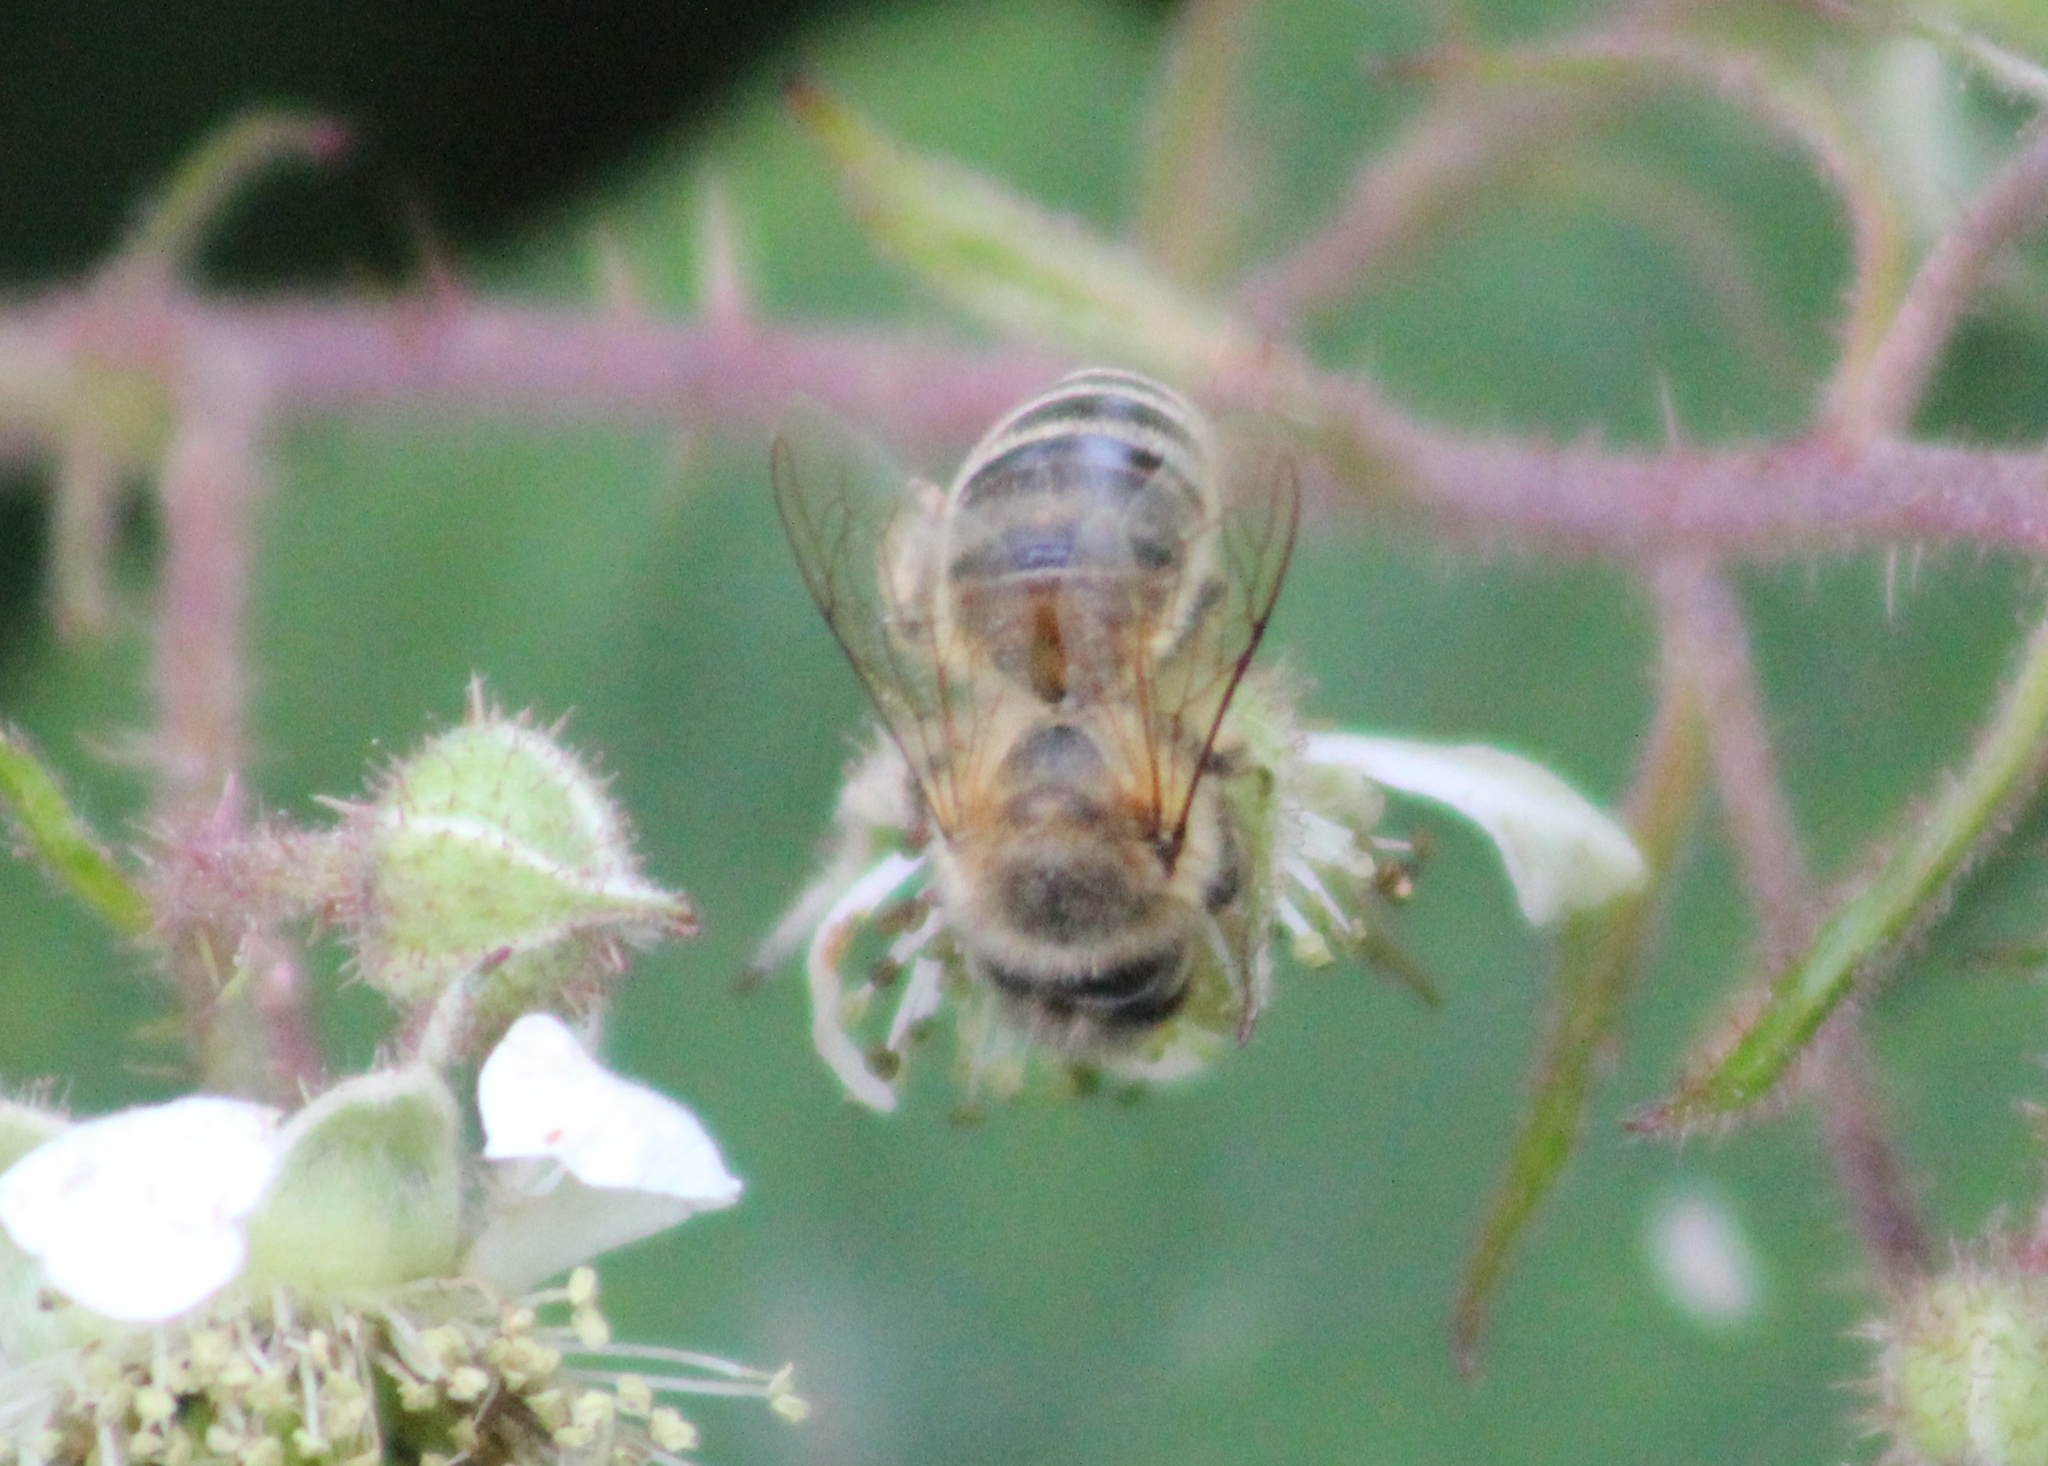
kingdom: Animalia
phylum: Arthropoda
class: Insecta
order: Hymenoptera
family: Apidae
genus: Apis
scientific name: Apis mellifera
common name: Honey bee
